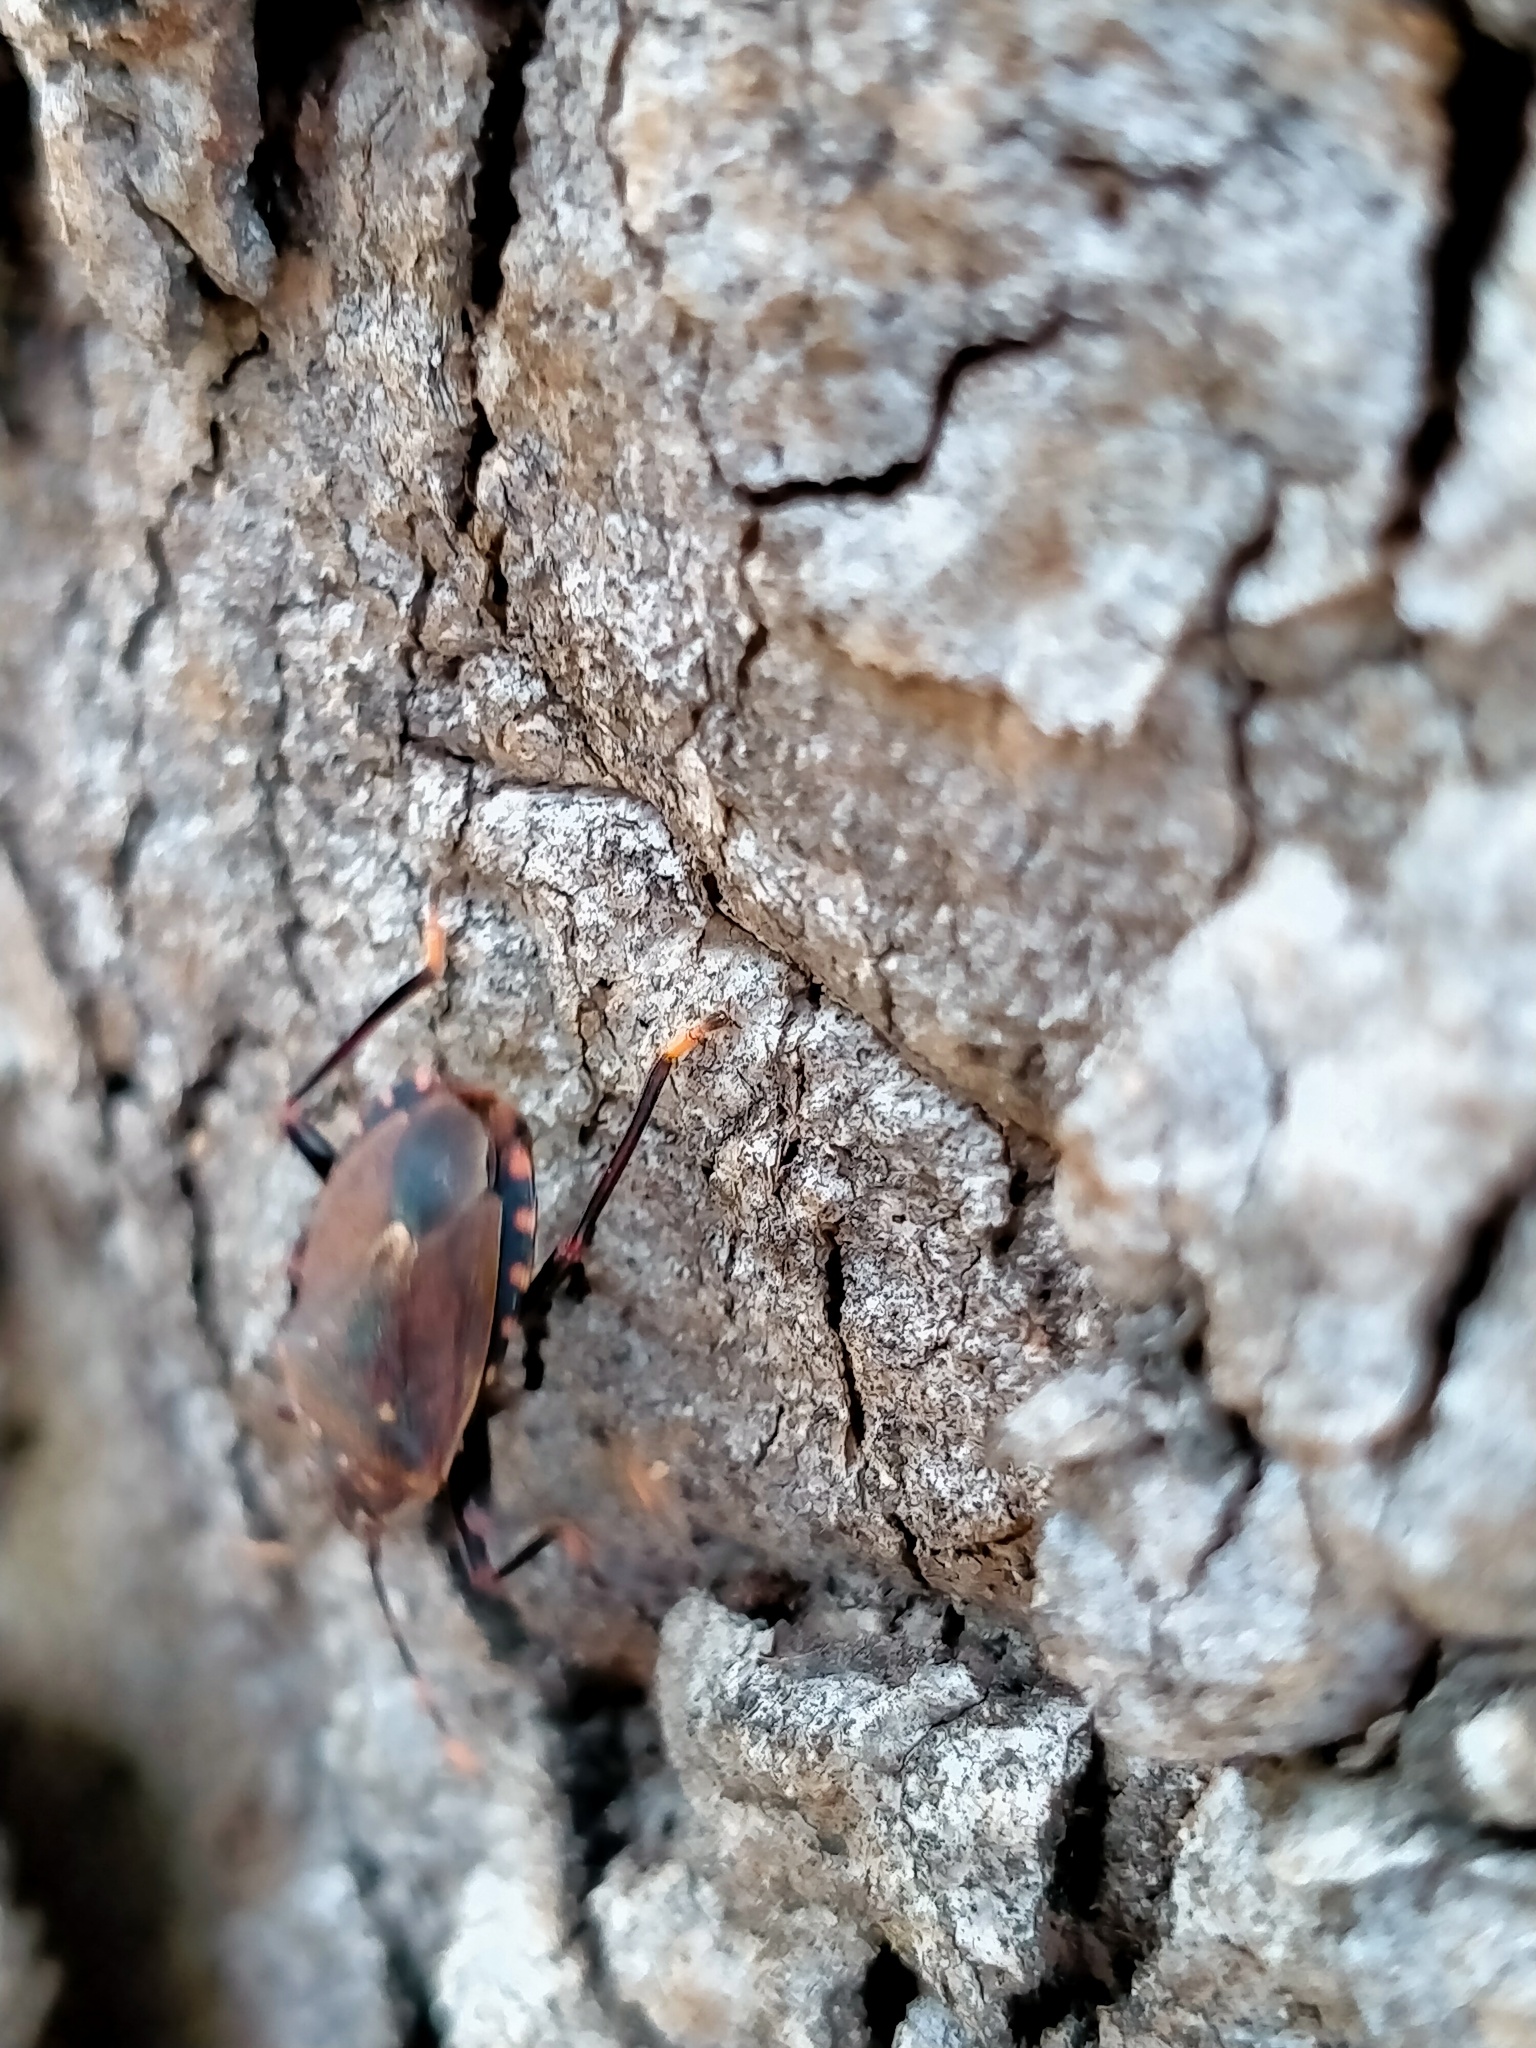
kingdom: Animalia
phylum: Arthropoda
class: Insecta
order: Hemiptera
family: Pentatomidae
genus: Notius
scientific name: Notius
